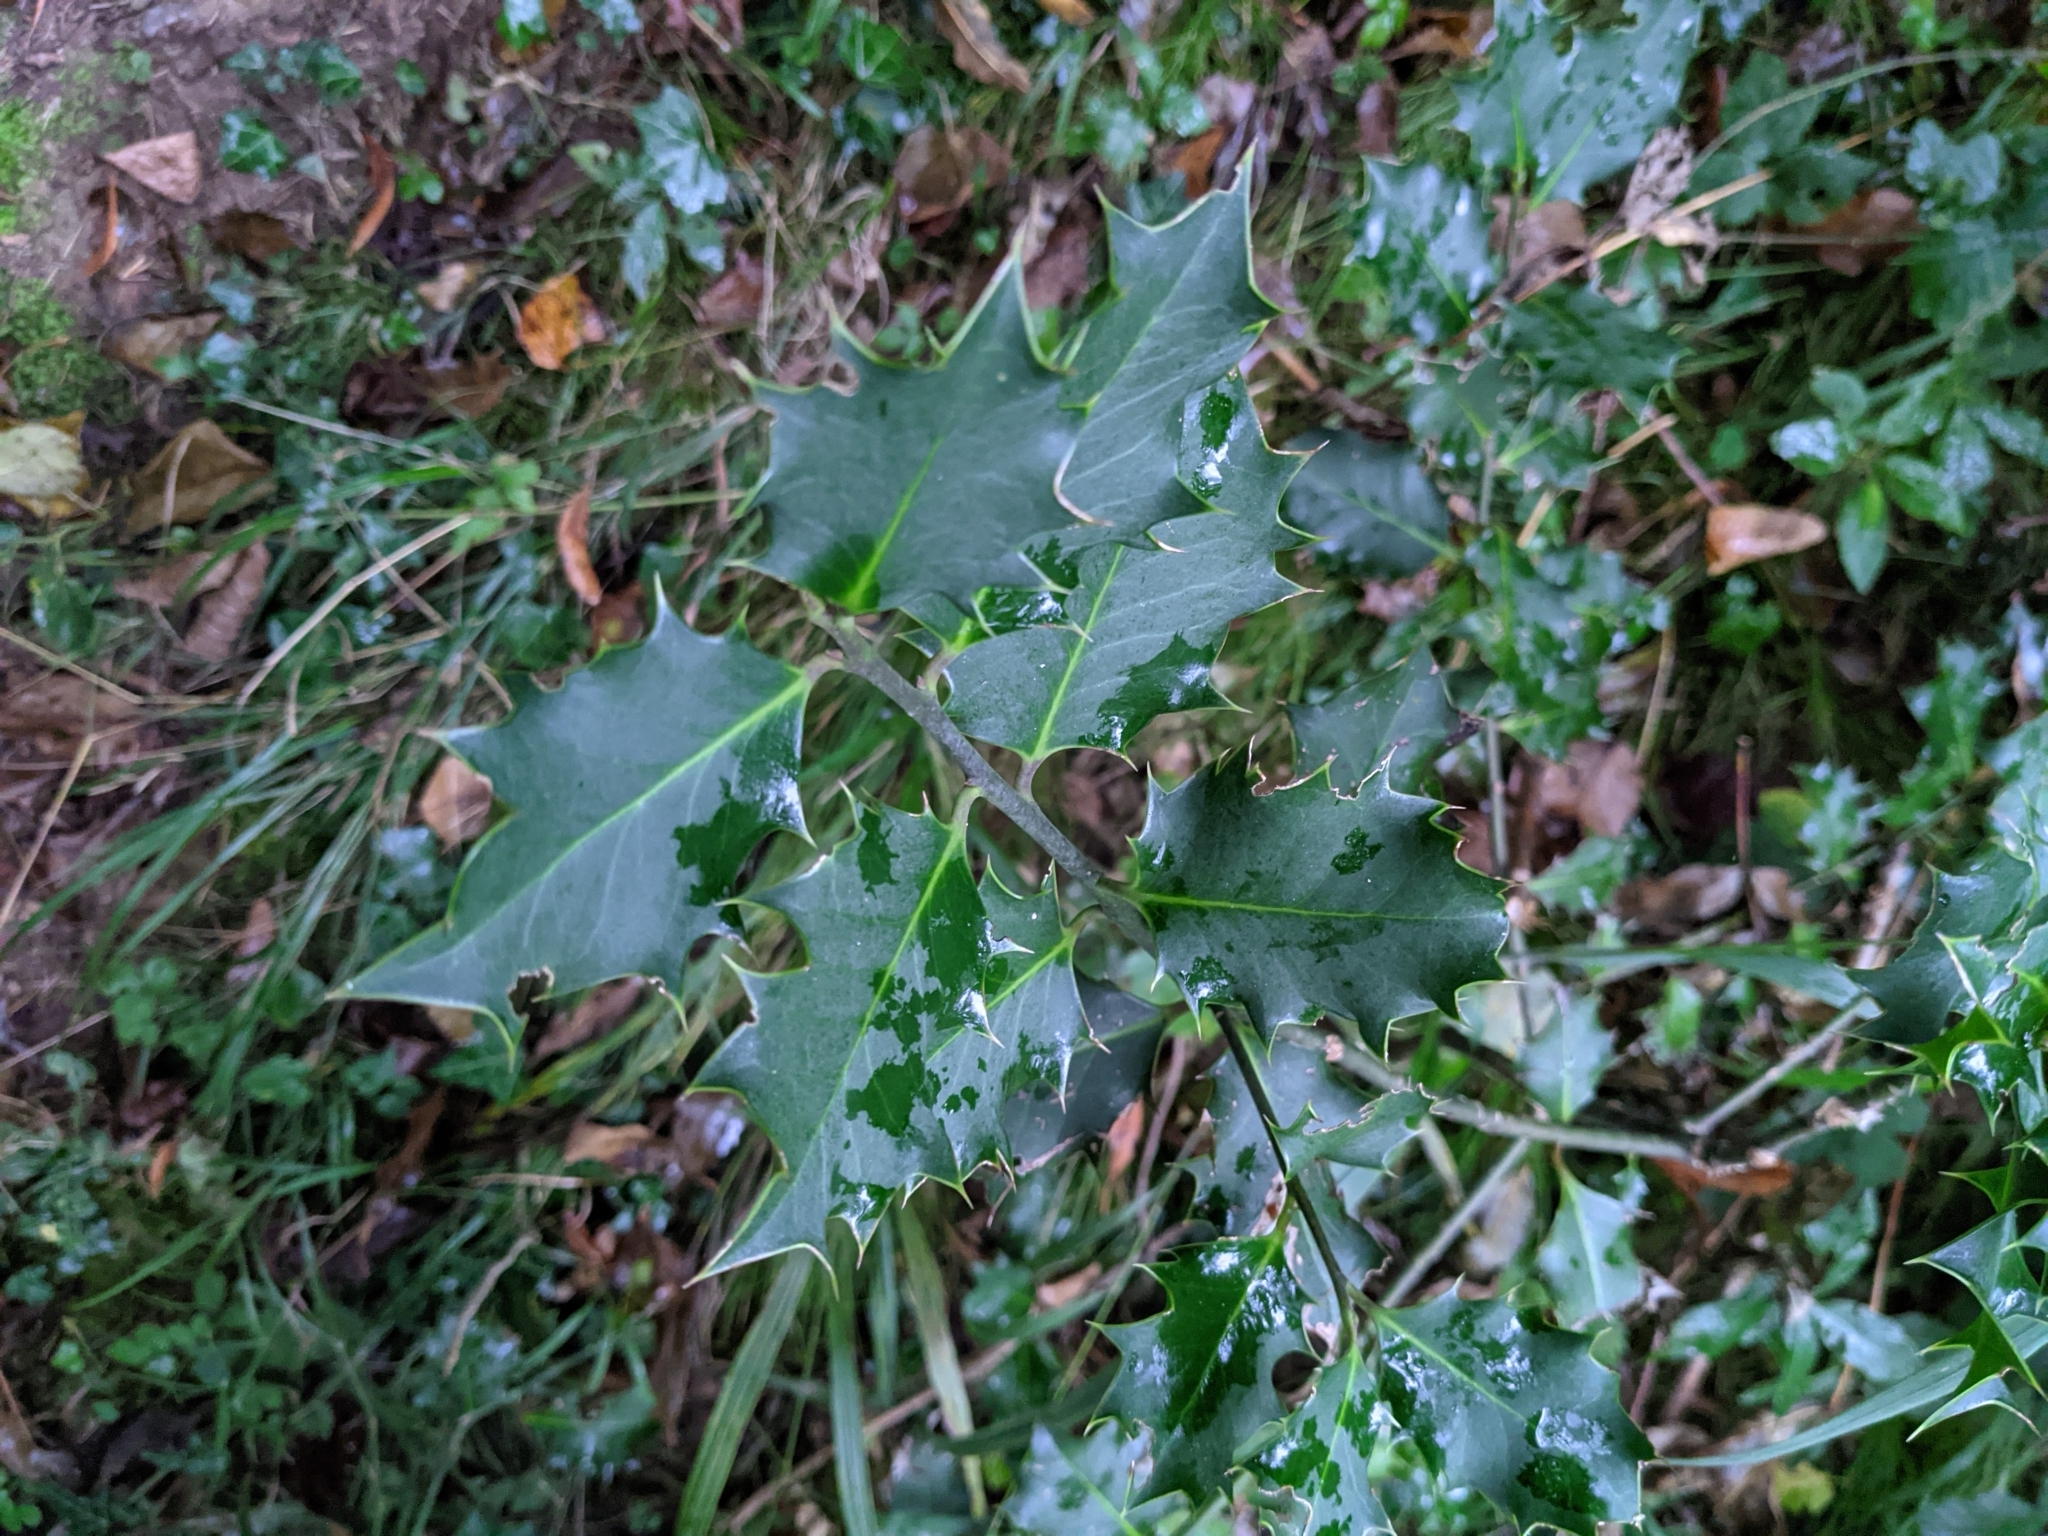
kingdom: Plantae
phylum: Tracheophyta
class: Magnoliopsida
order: Aquifoliales
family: Aquifoliaceae
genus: Ilex
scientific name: Ilex aquifolium
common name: English holly
